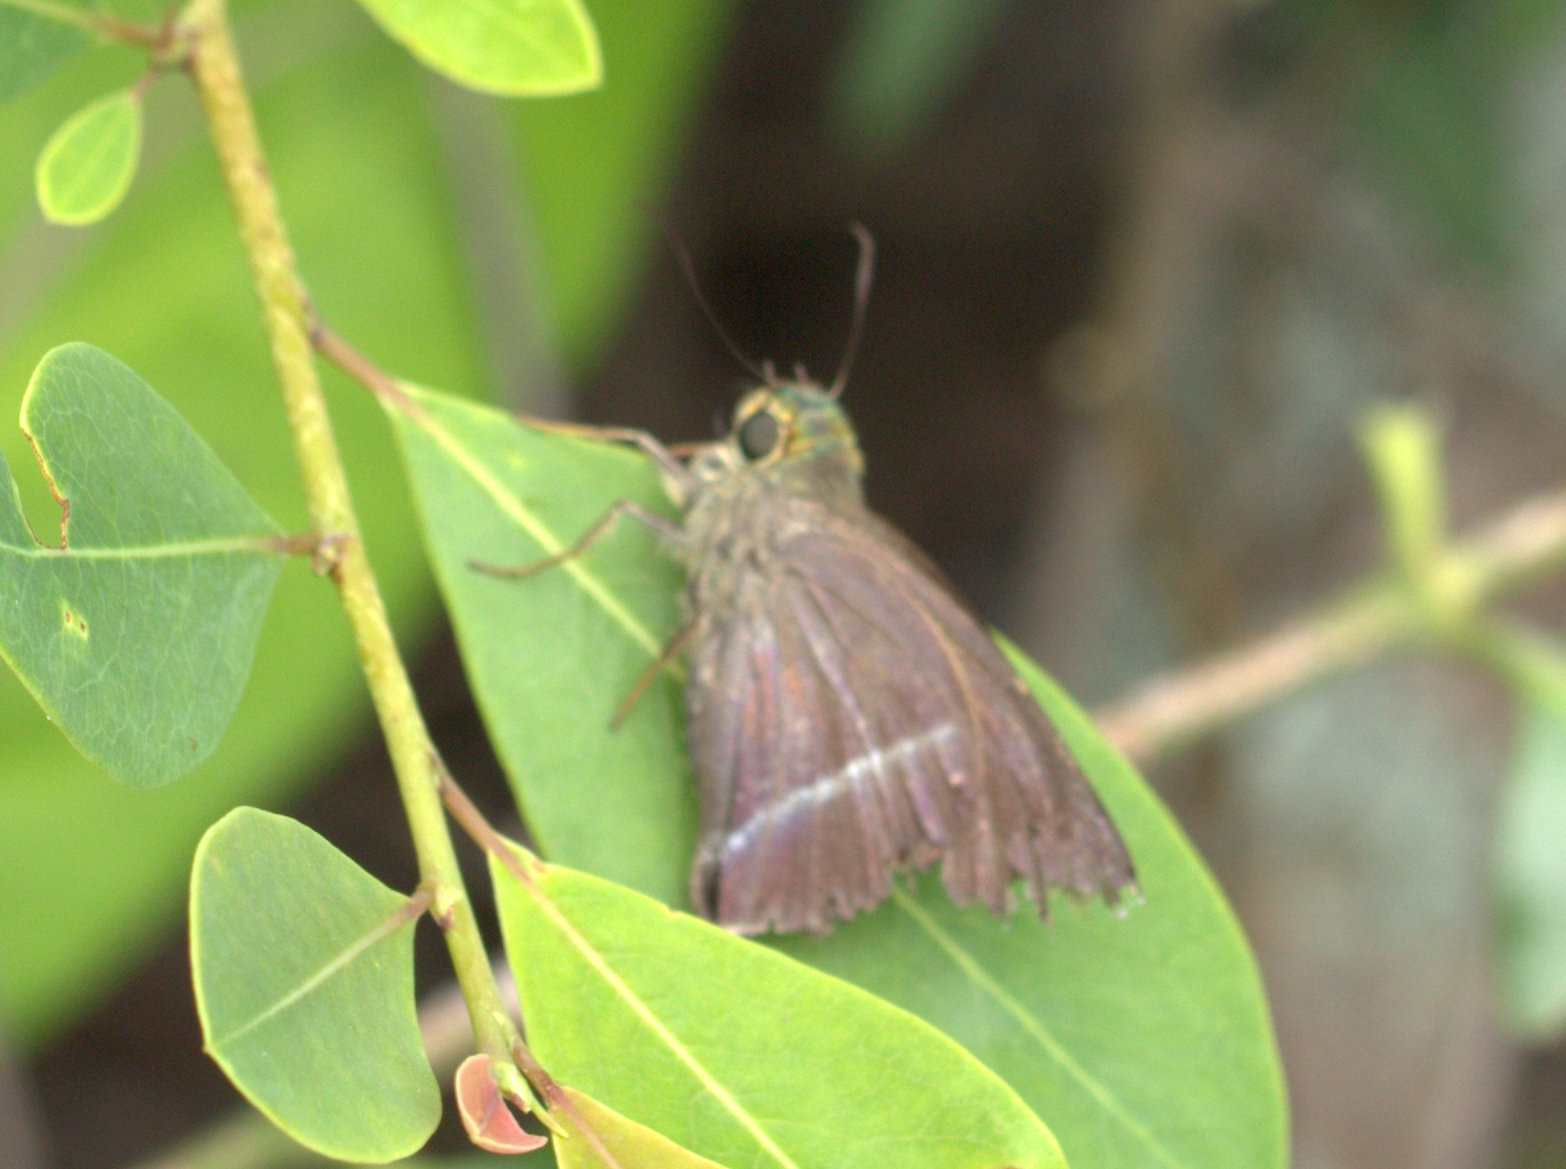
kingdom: Animalia
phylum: Arthropoda
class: Insecta
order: Lepidoptera
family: Hesperiidae
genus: Hasora
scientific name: Hasora chromus
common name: Common banded awl
